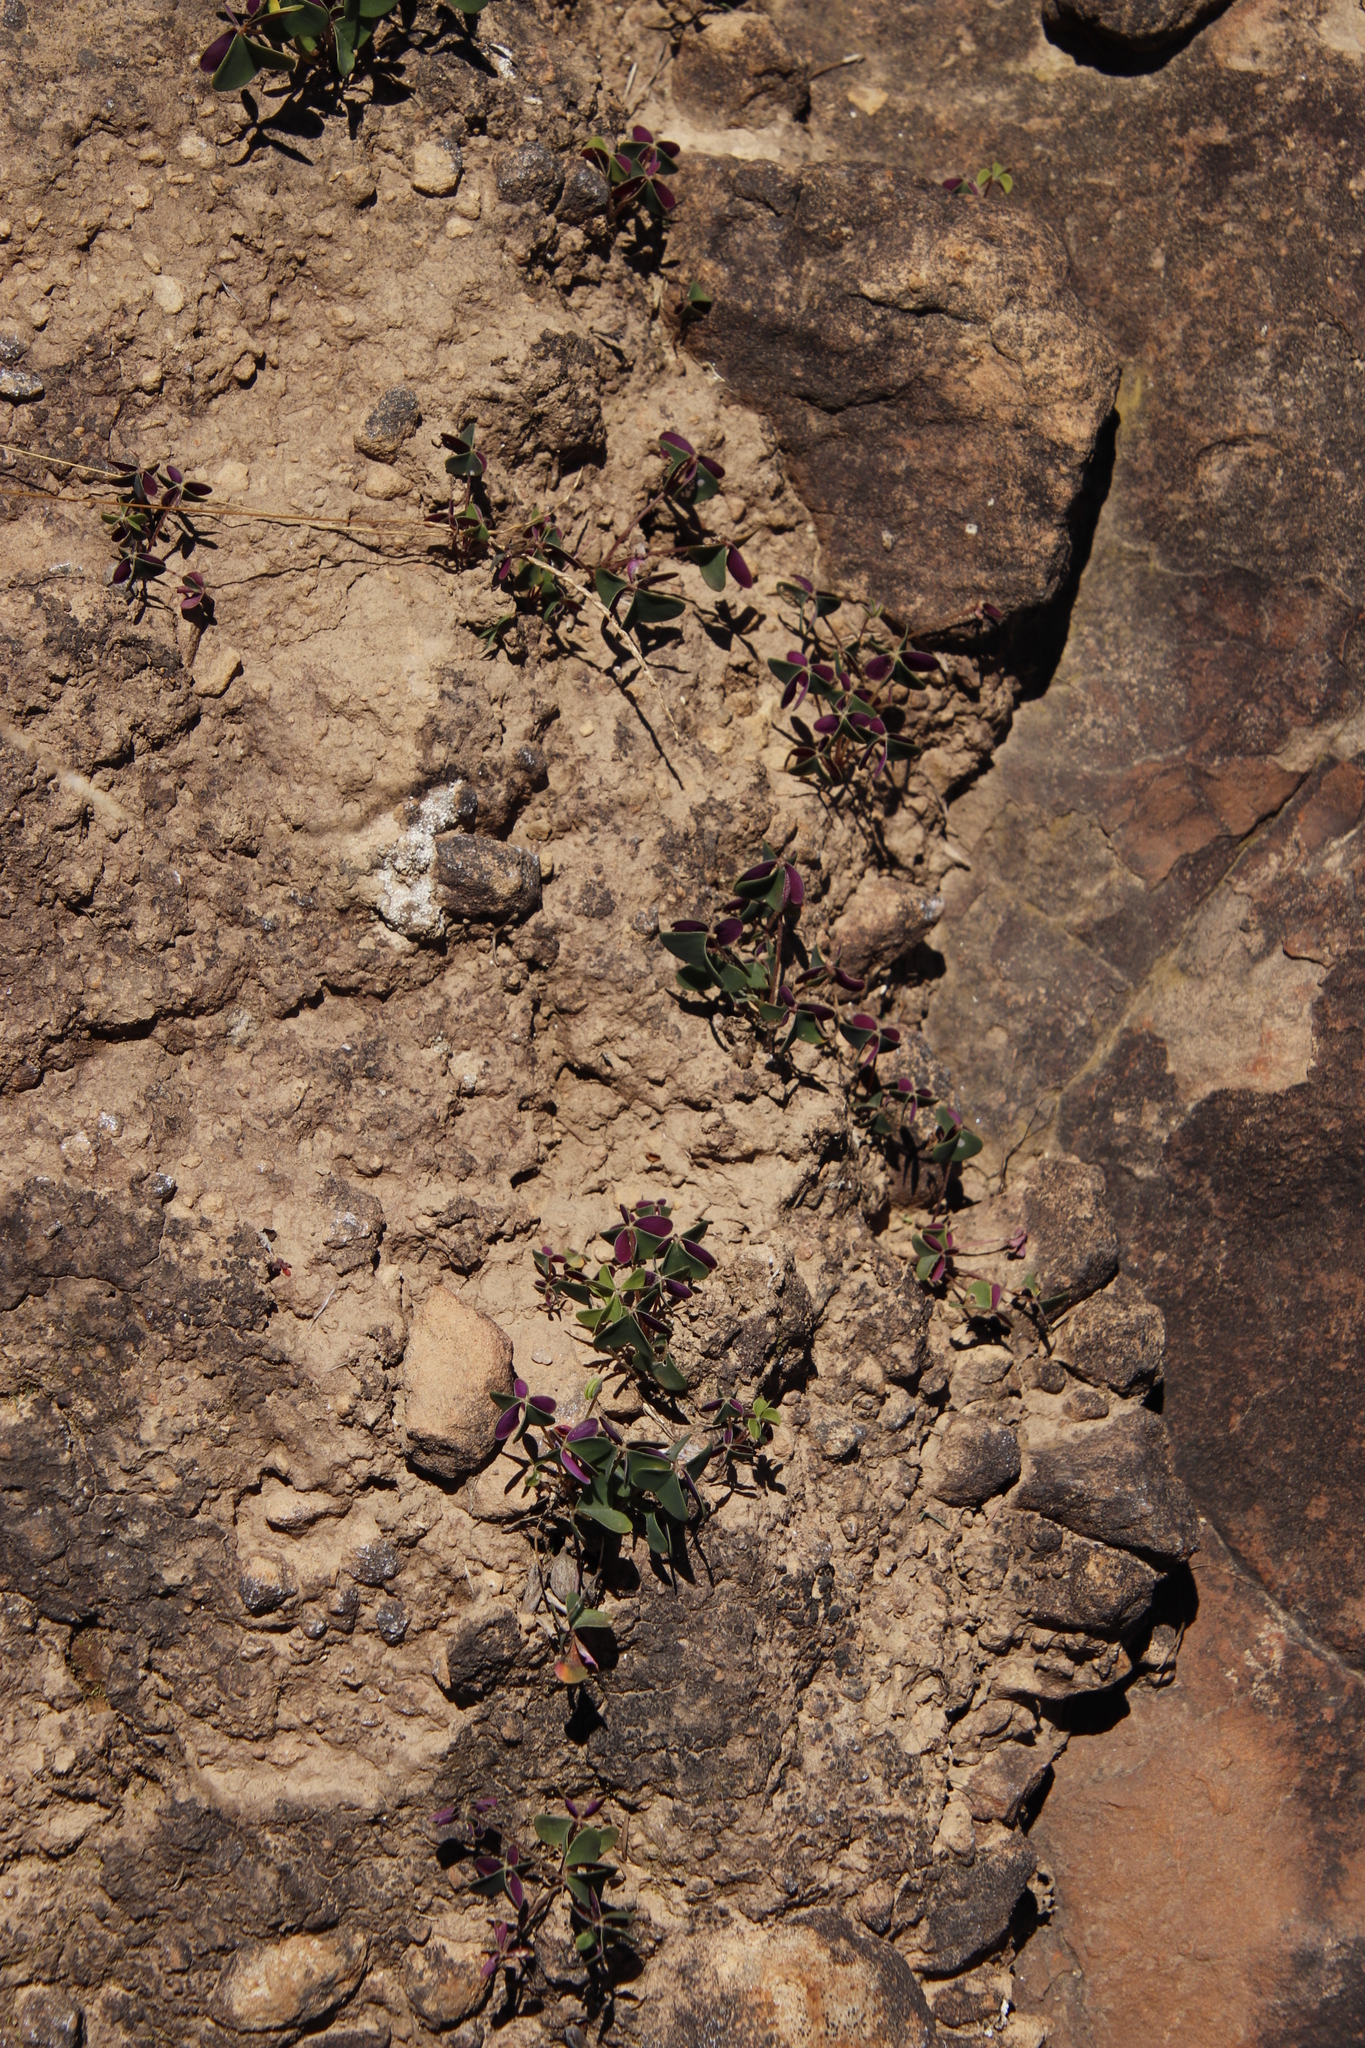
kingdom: Plantae
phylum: Tracheophyta
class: Magnoliopsida
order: Oxalidales
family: Oxalidaceae
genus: Oxalis
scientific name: Oxalis bowiei
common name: Bowie's wood-sorrel
